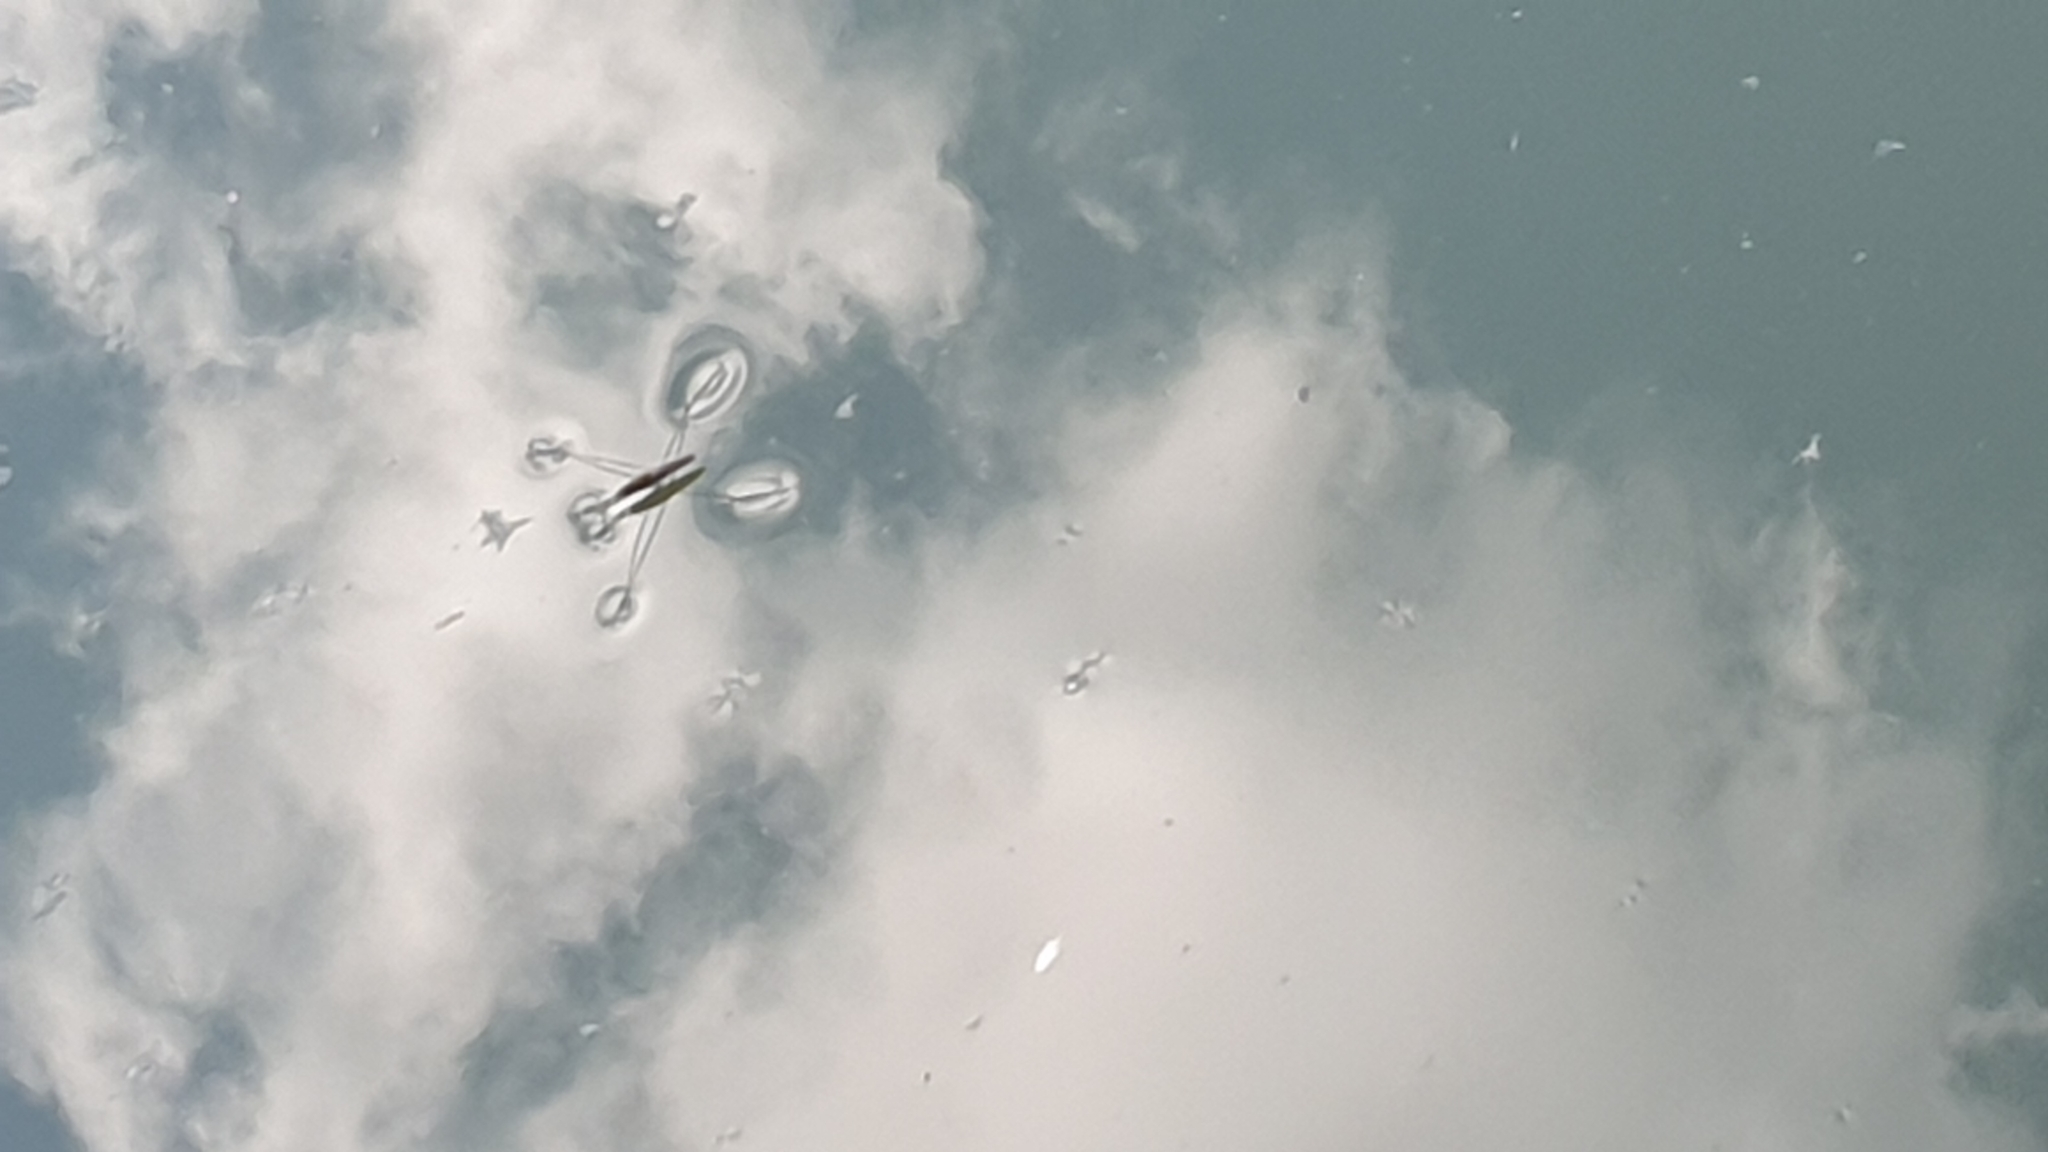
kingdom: Animalia
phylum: Arthropoda
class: Insecta
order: Hemiptera
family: Gerridae
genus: Aquarius
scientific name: Aquarius
